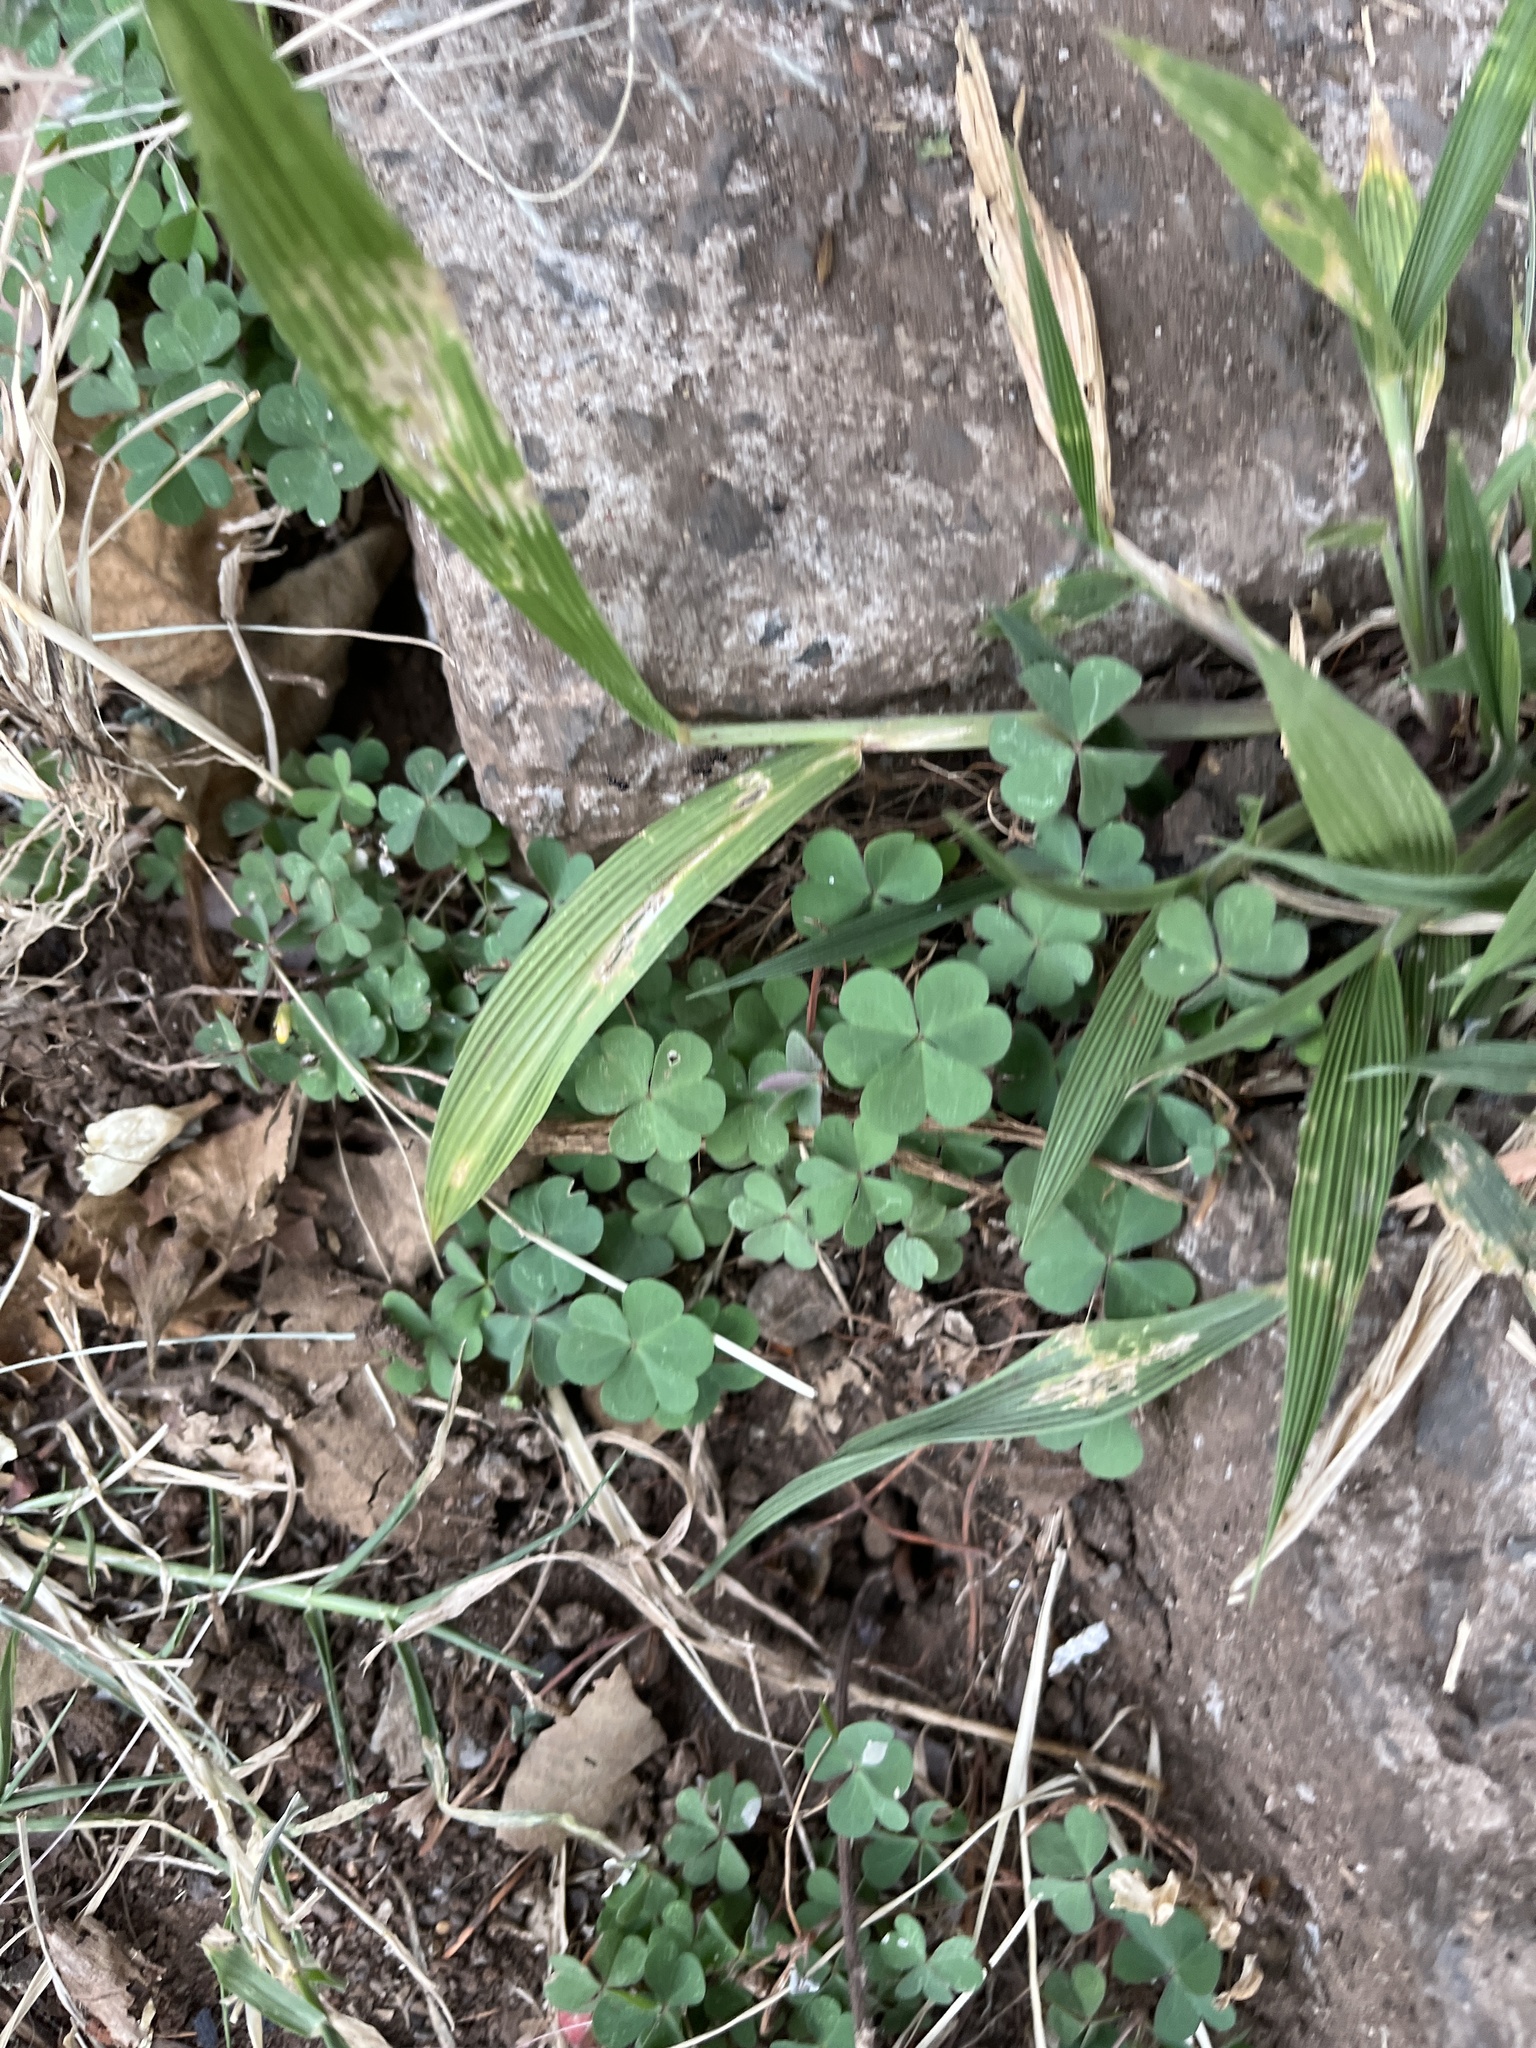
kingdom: Plantae
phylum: Tracheophyta
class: Magnoliopsida
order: Oxalidales
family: Oxalidaceae
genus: Oxalis
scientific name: Oxalis corniculata
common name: Procumbent yellow-sorrel
